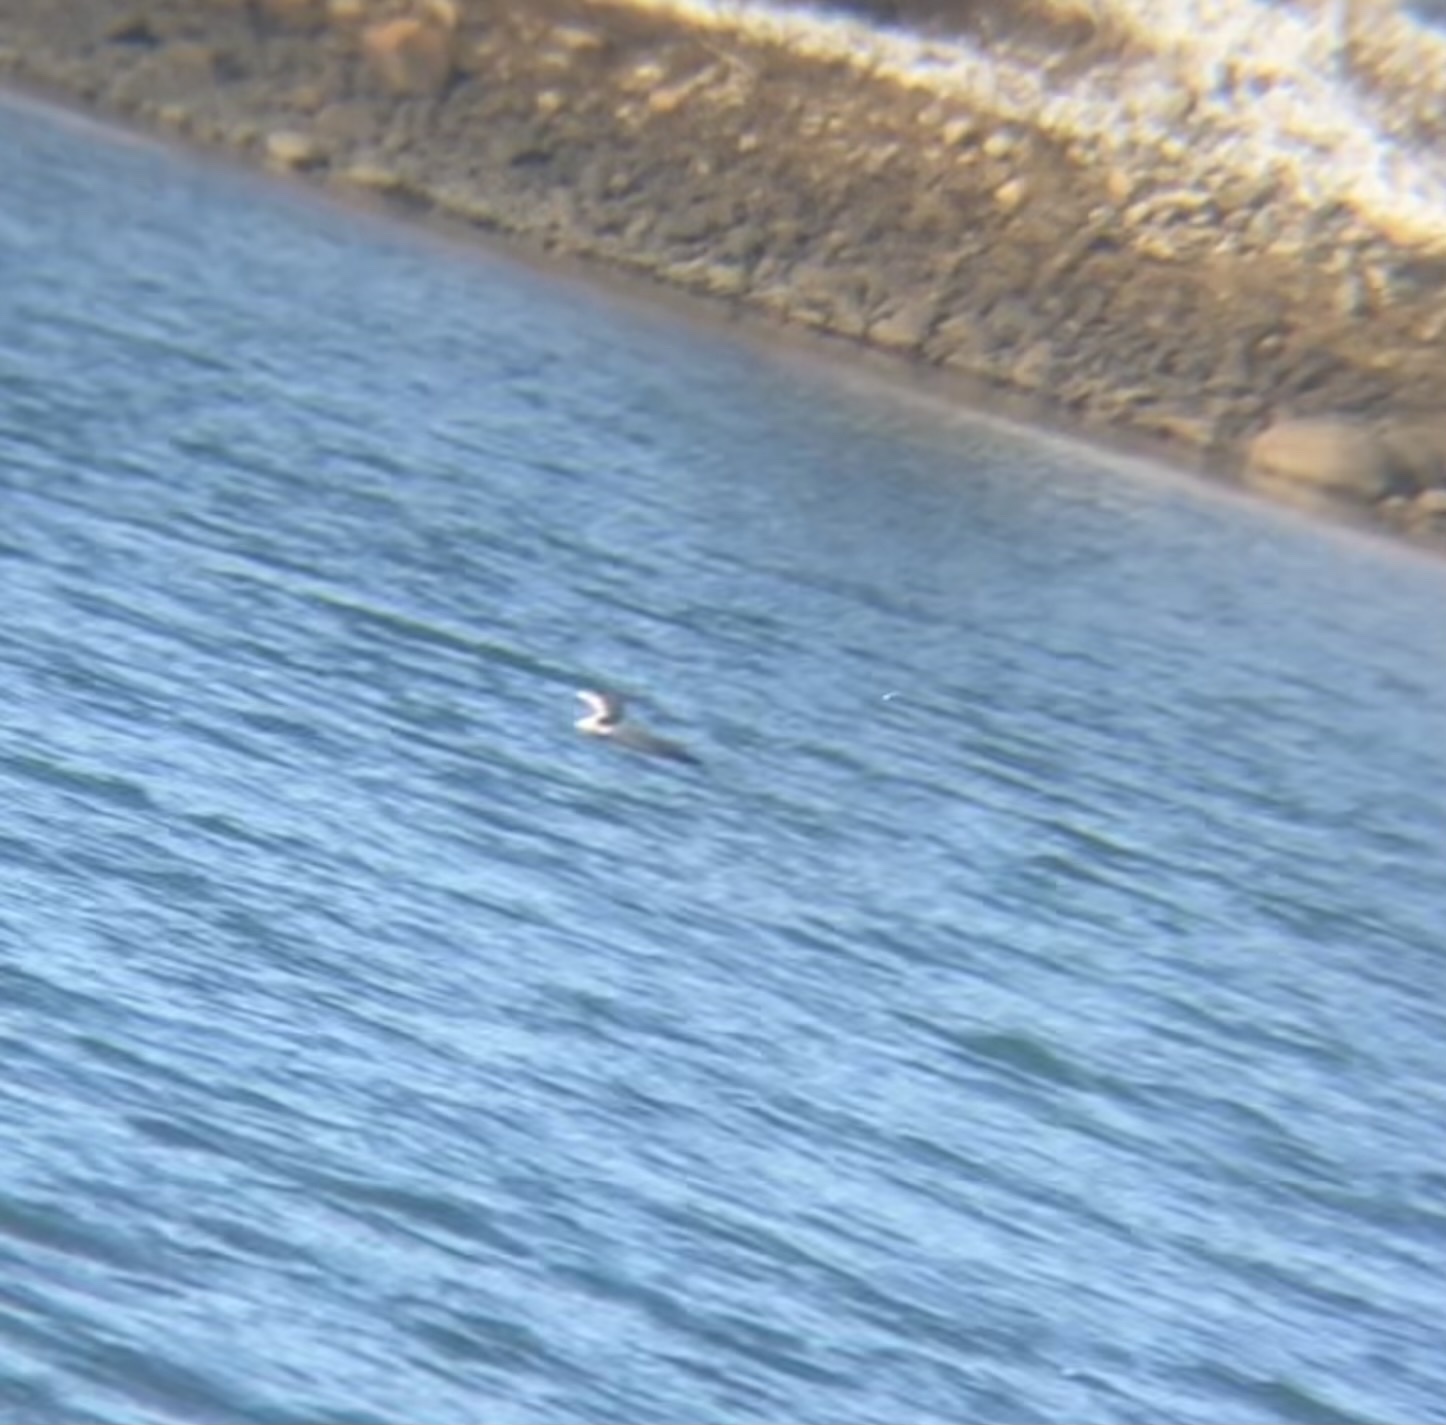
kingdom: Animalia
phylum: Chordata
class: Aves
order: Gaviiformes
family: Gaviidae
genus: Gavia
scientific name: Gavia immer
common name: Common loon
